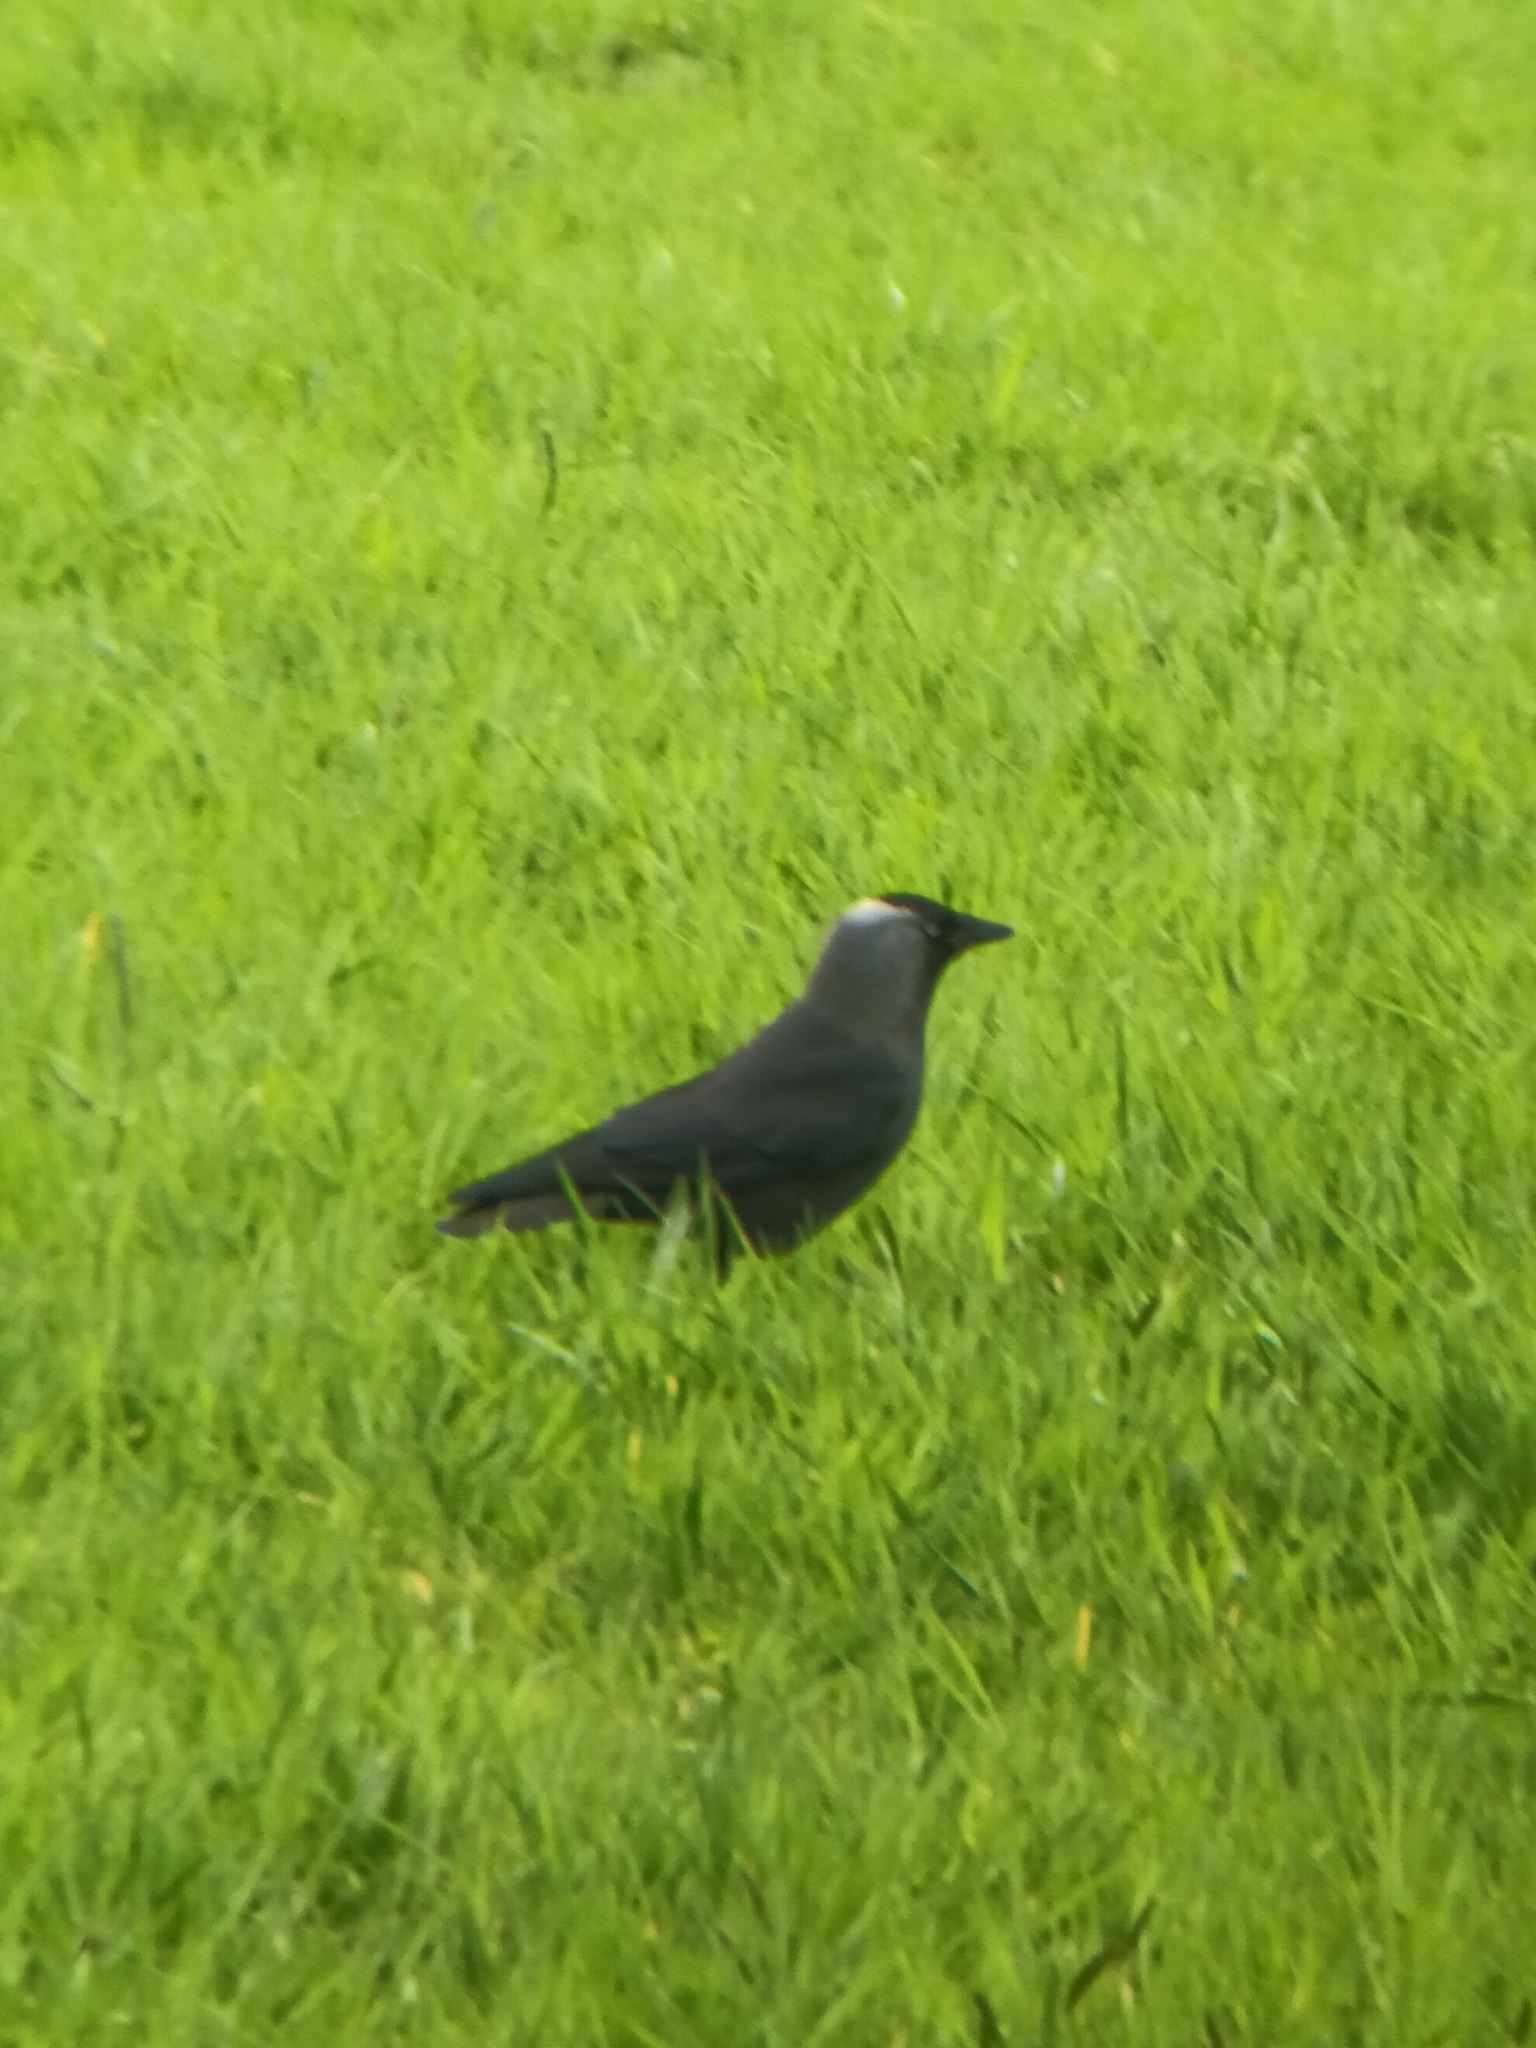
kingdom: Animalia
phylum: Chordata
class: Aves
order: Passeriformes
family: Corvidae
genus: Coloeus
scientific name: Coloeus monedula
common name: Western jackdaw
